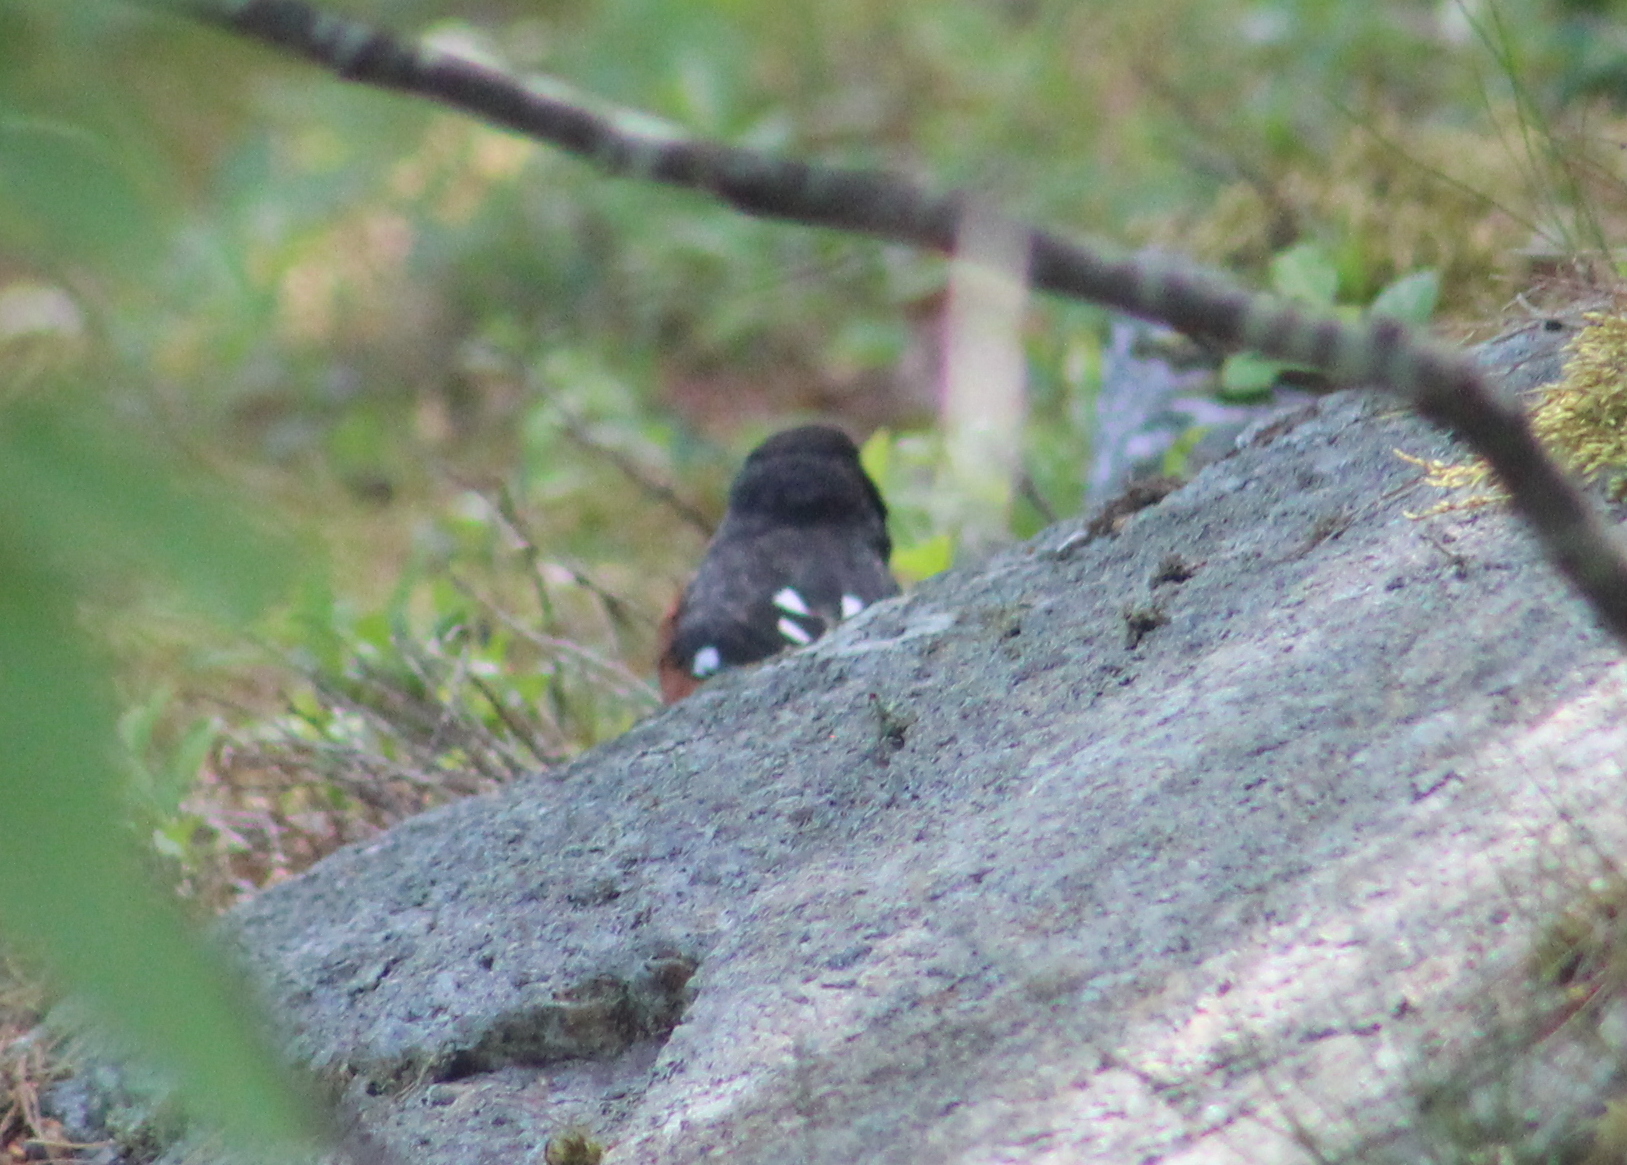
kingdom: Animalia
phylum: Chordata
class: Aves
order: Passeriformes
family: Passerellidae
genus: Pipilo
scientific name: Pipilo erythrophthalmus
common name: Eastern towhee
